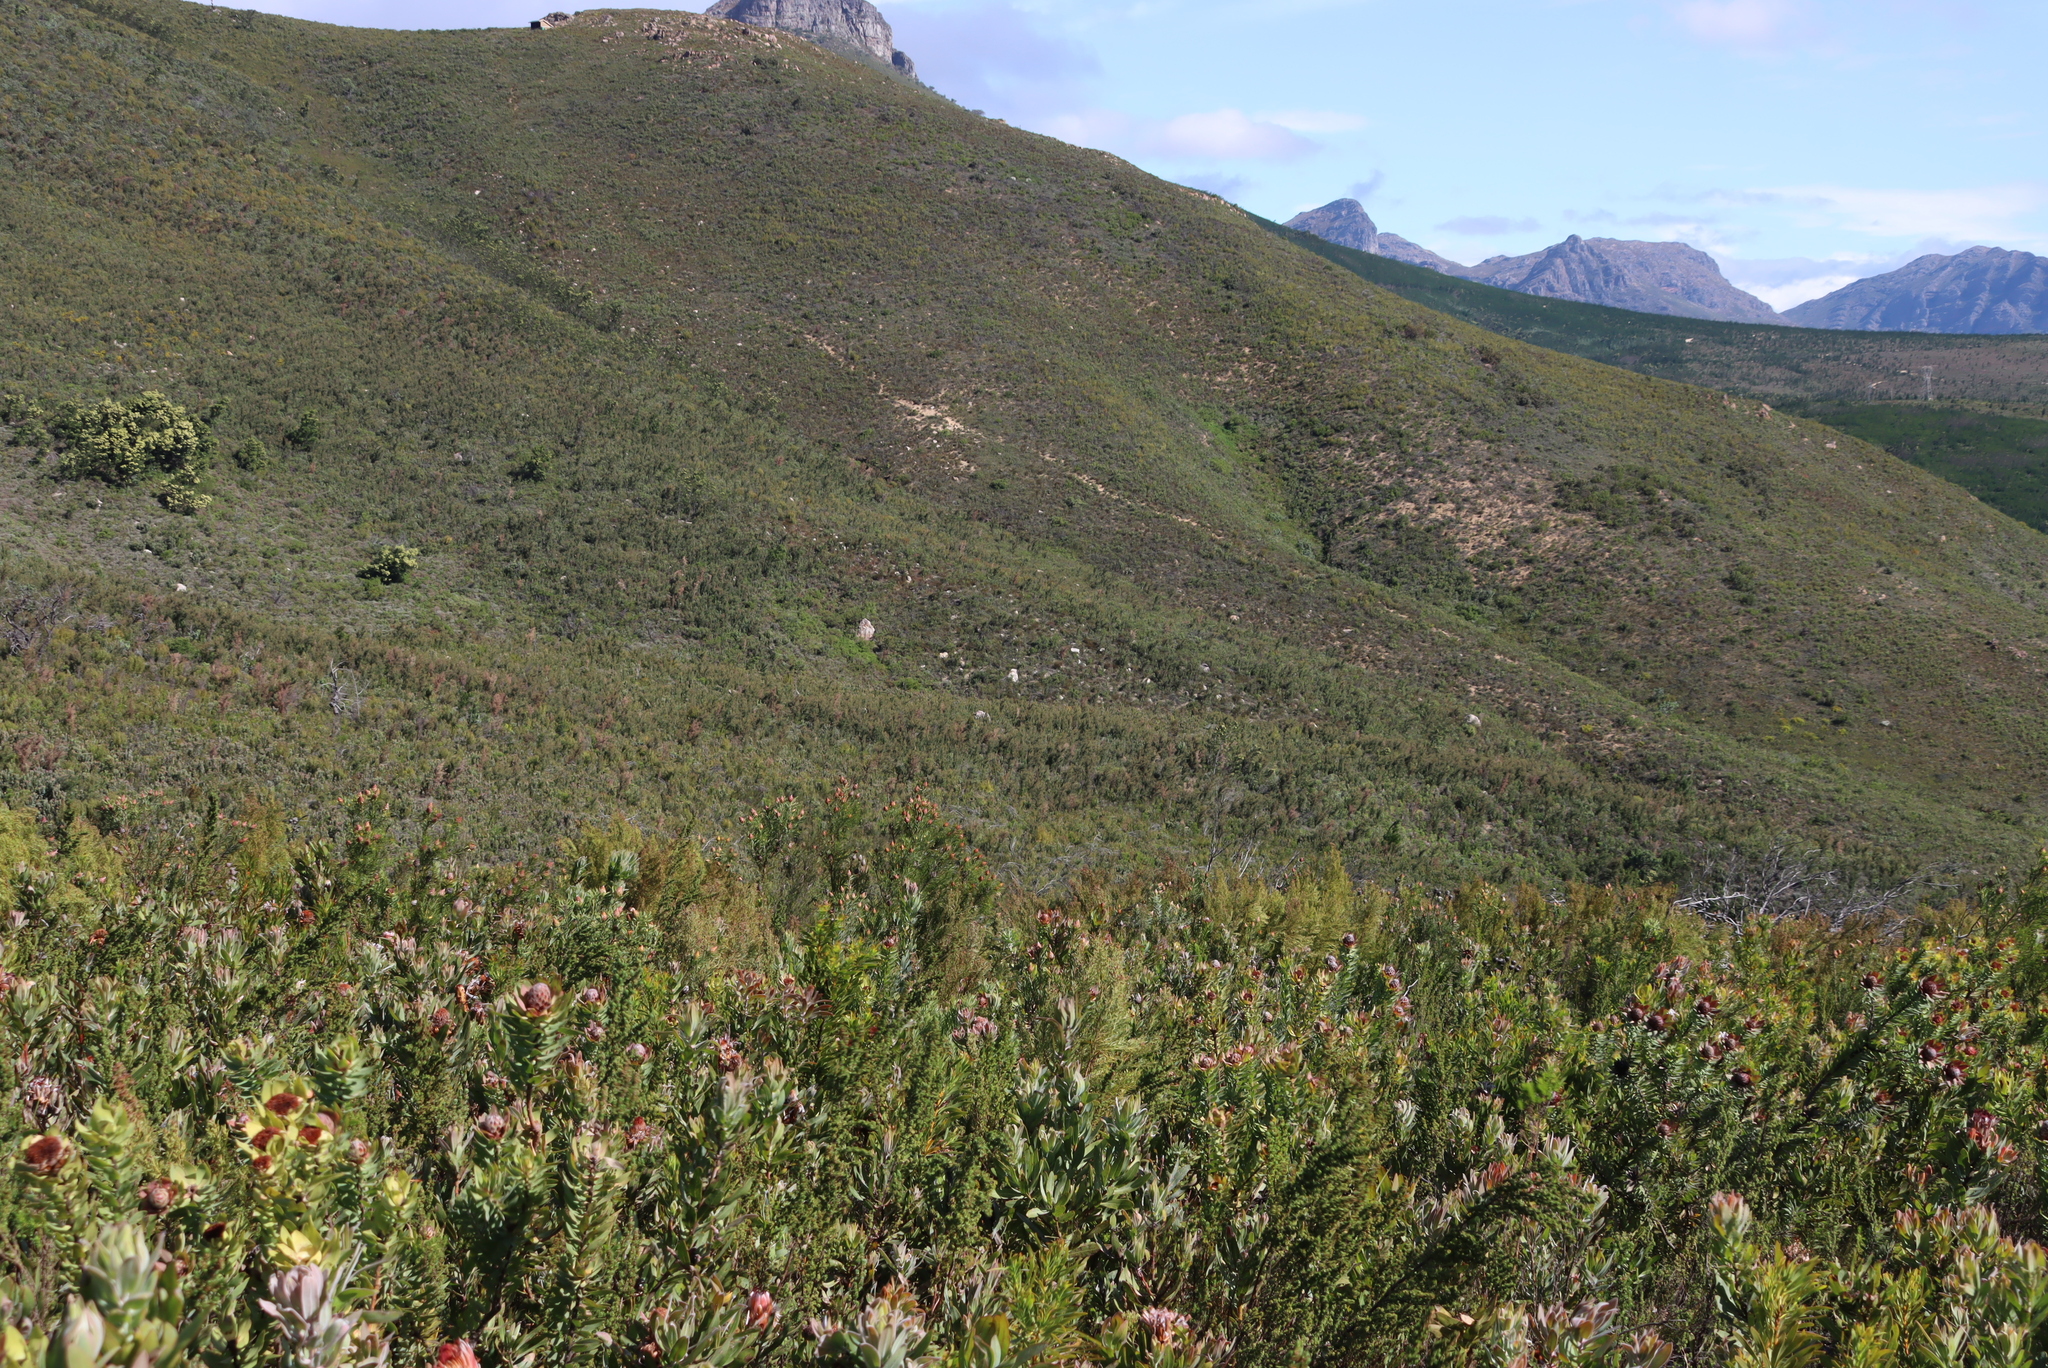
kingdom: Plantae
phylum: Tracheophyta
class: Magnoliopsida
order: Proteales
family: Proteaceae
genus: Protea
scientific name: Protea laurifolia
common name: Grey-leaf sugarbsh
